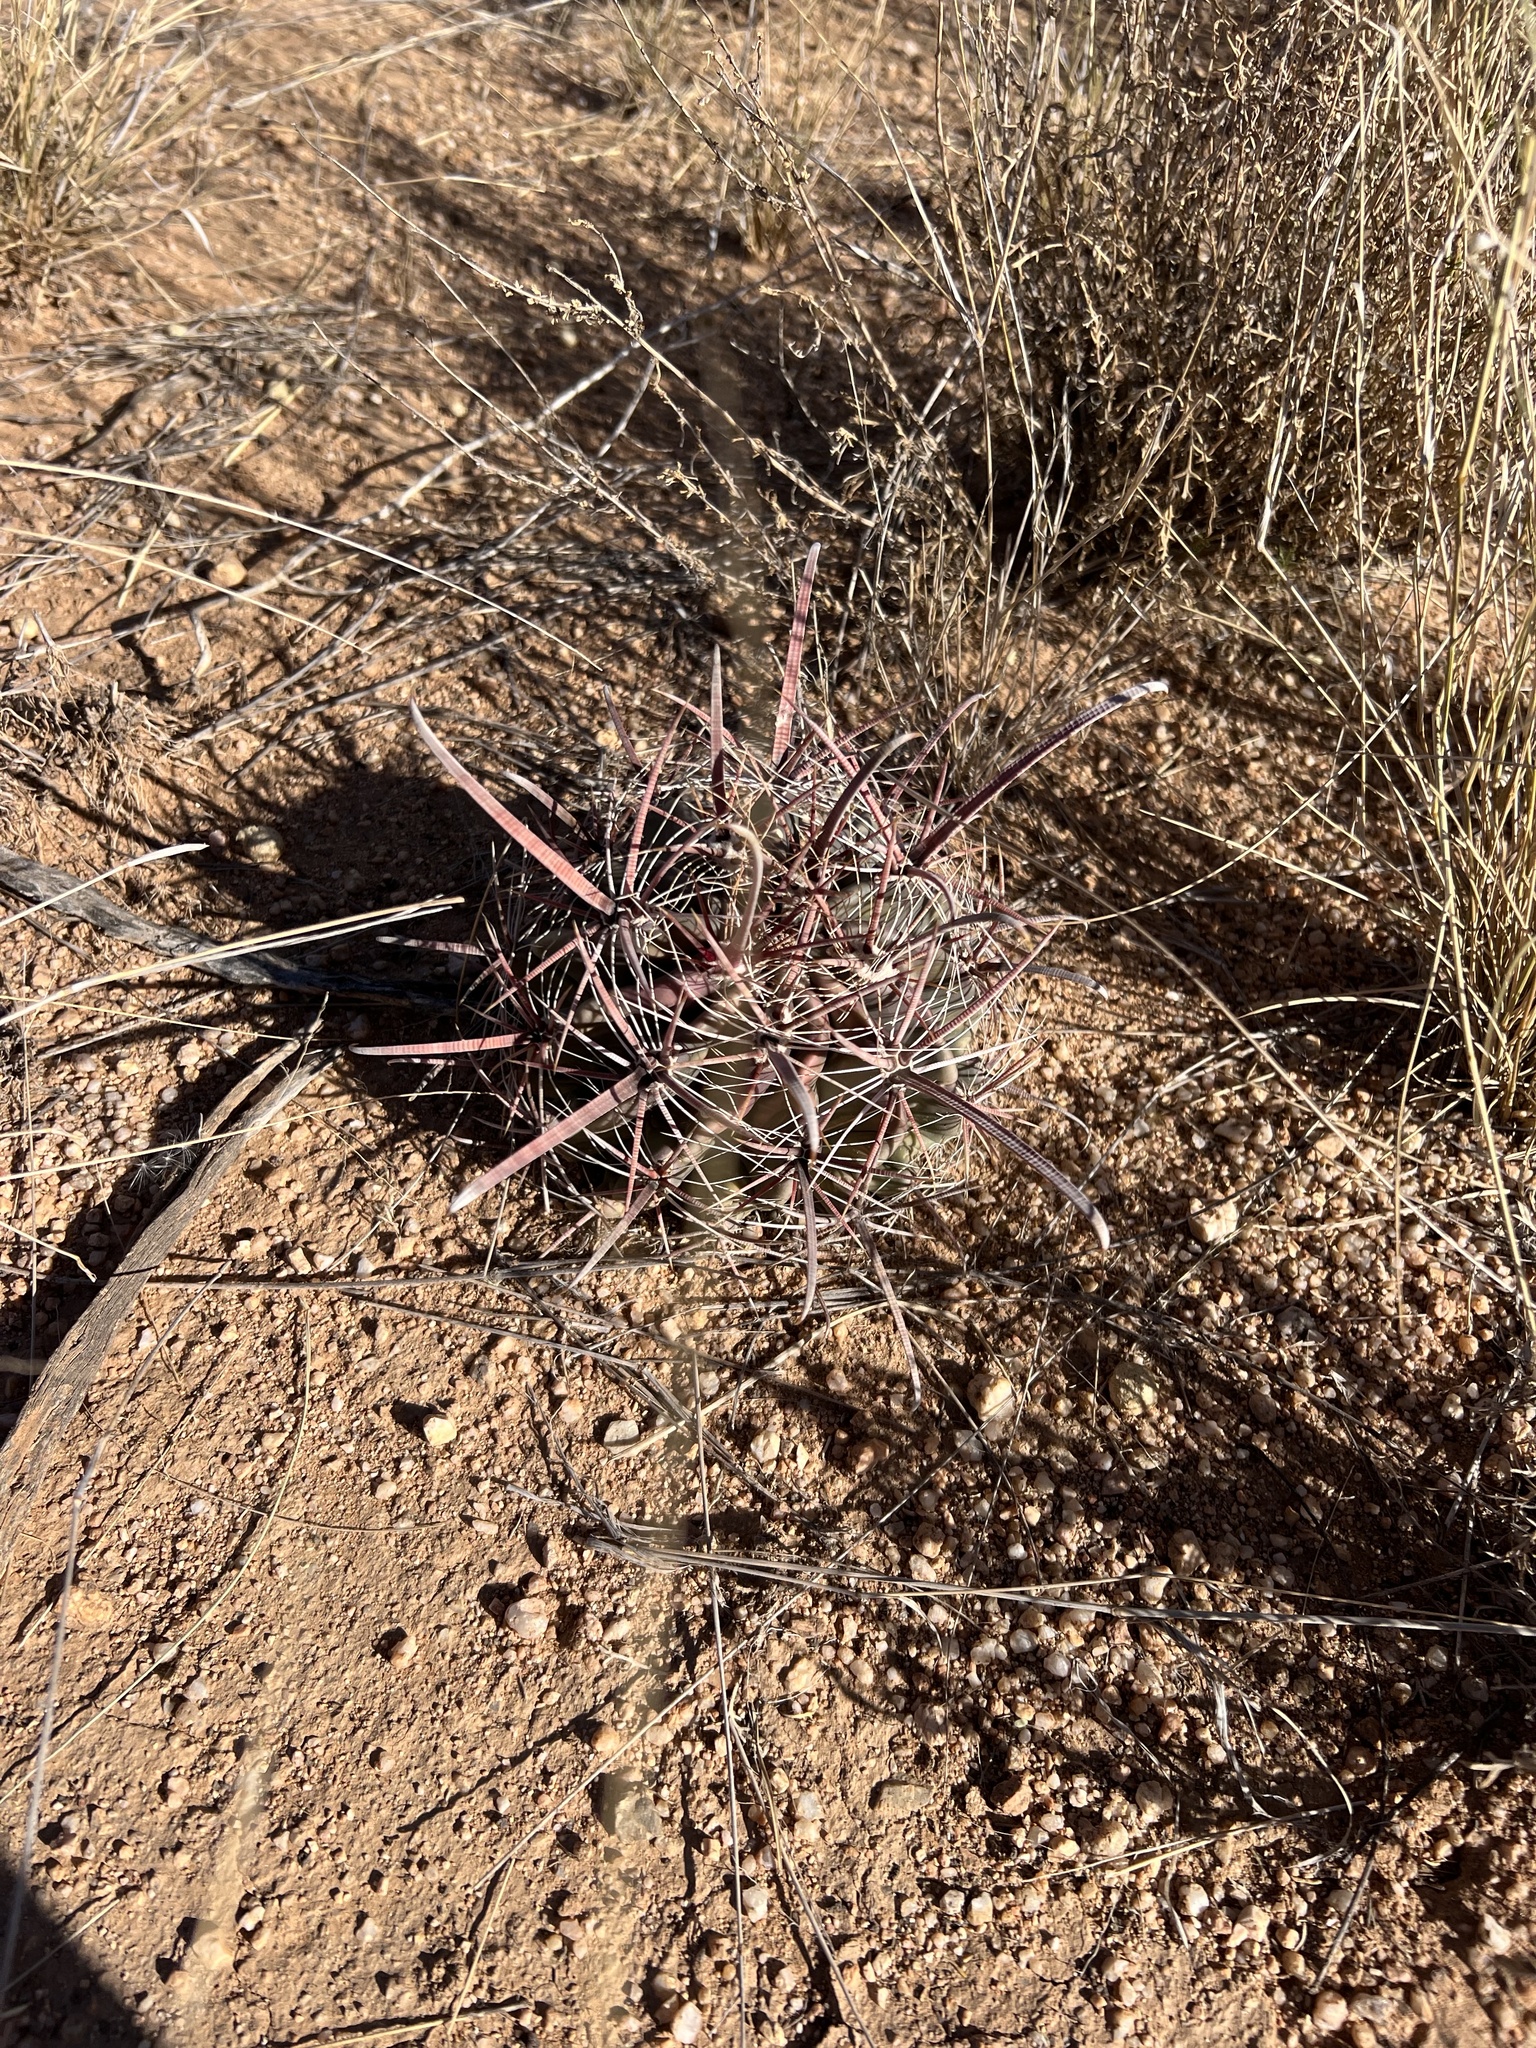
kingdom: Plantae
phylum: Tracheophyta
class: Magnoliopsida
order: Caryophyllales
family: Cactaceae
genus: Ferocactus
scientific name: Ferocactus wislizeni
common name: Candy barrel cactus
